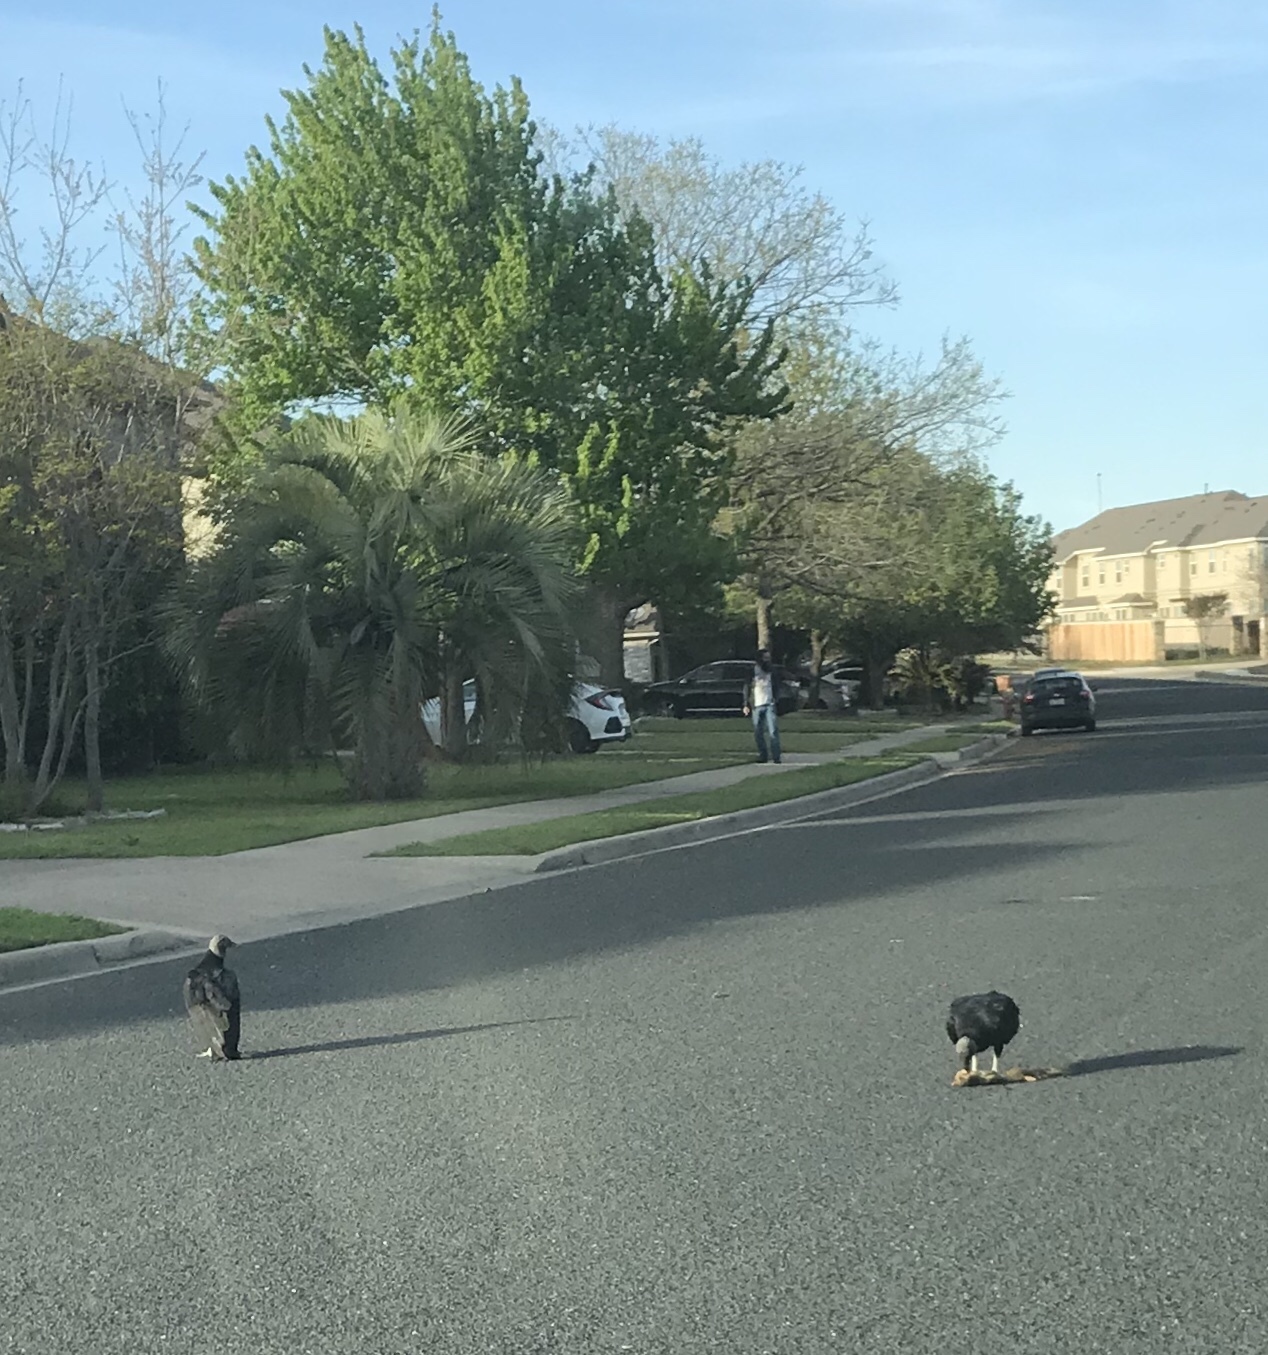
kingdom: Animalia
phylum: Chordata
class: Aves
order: Accipitriformes
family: Cathartidae
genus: Coragyps
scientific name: Coragyps atratus
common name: Black vulture
